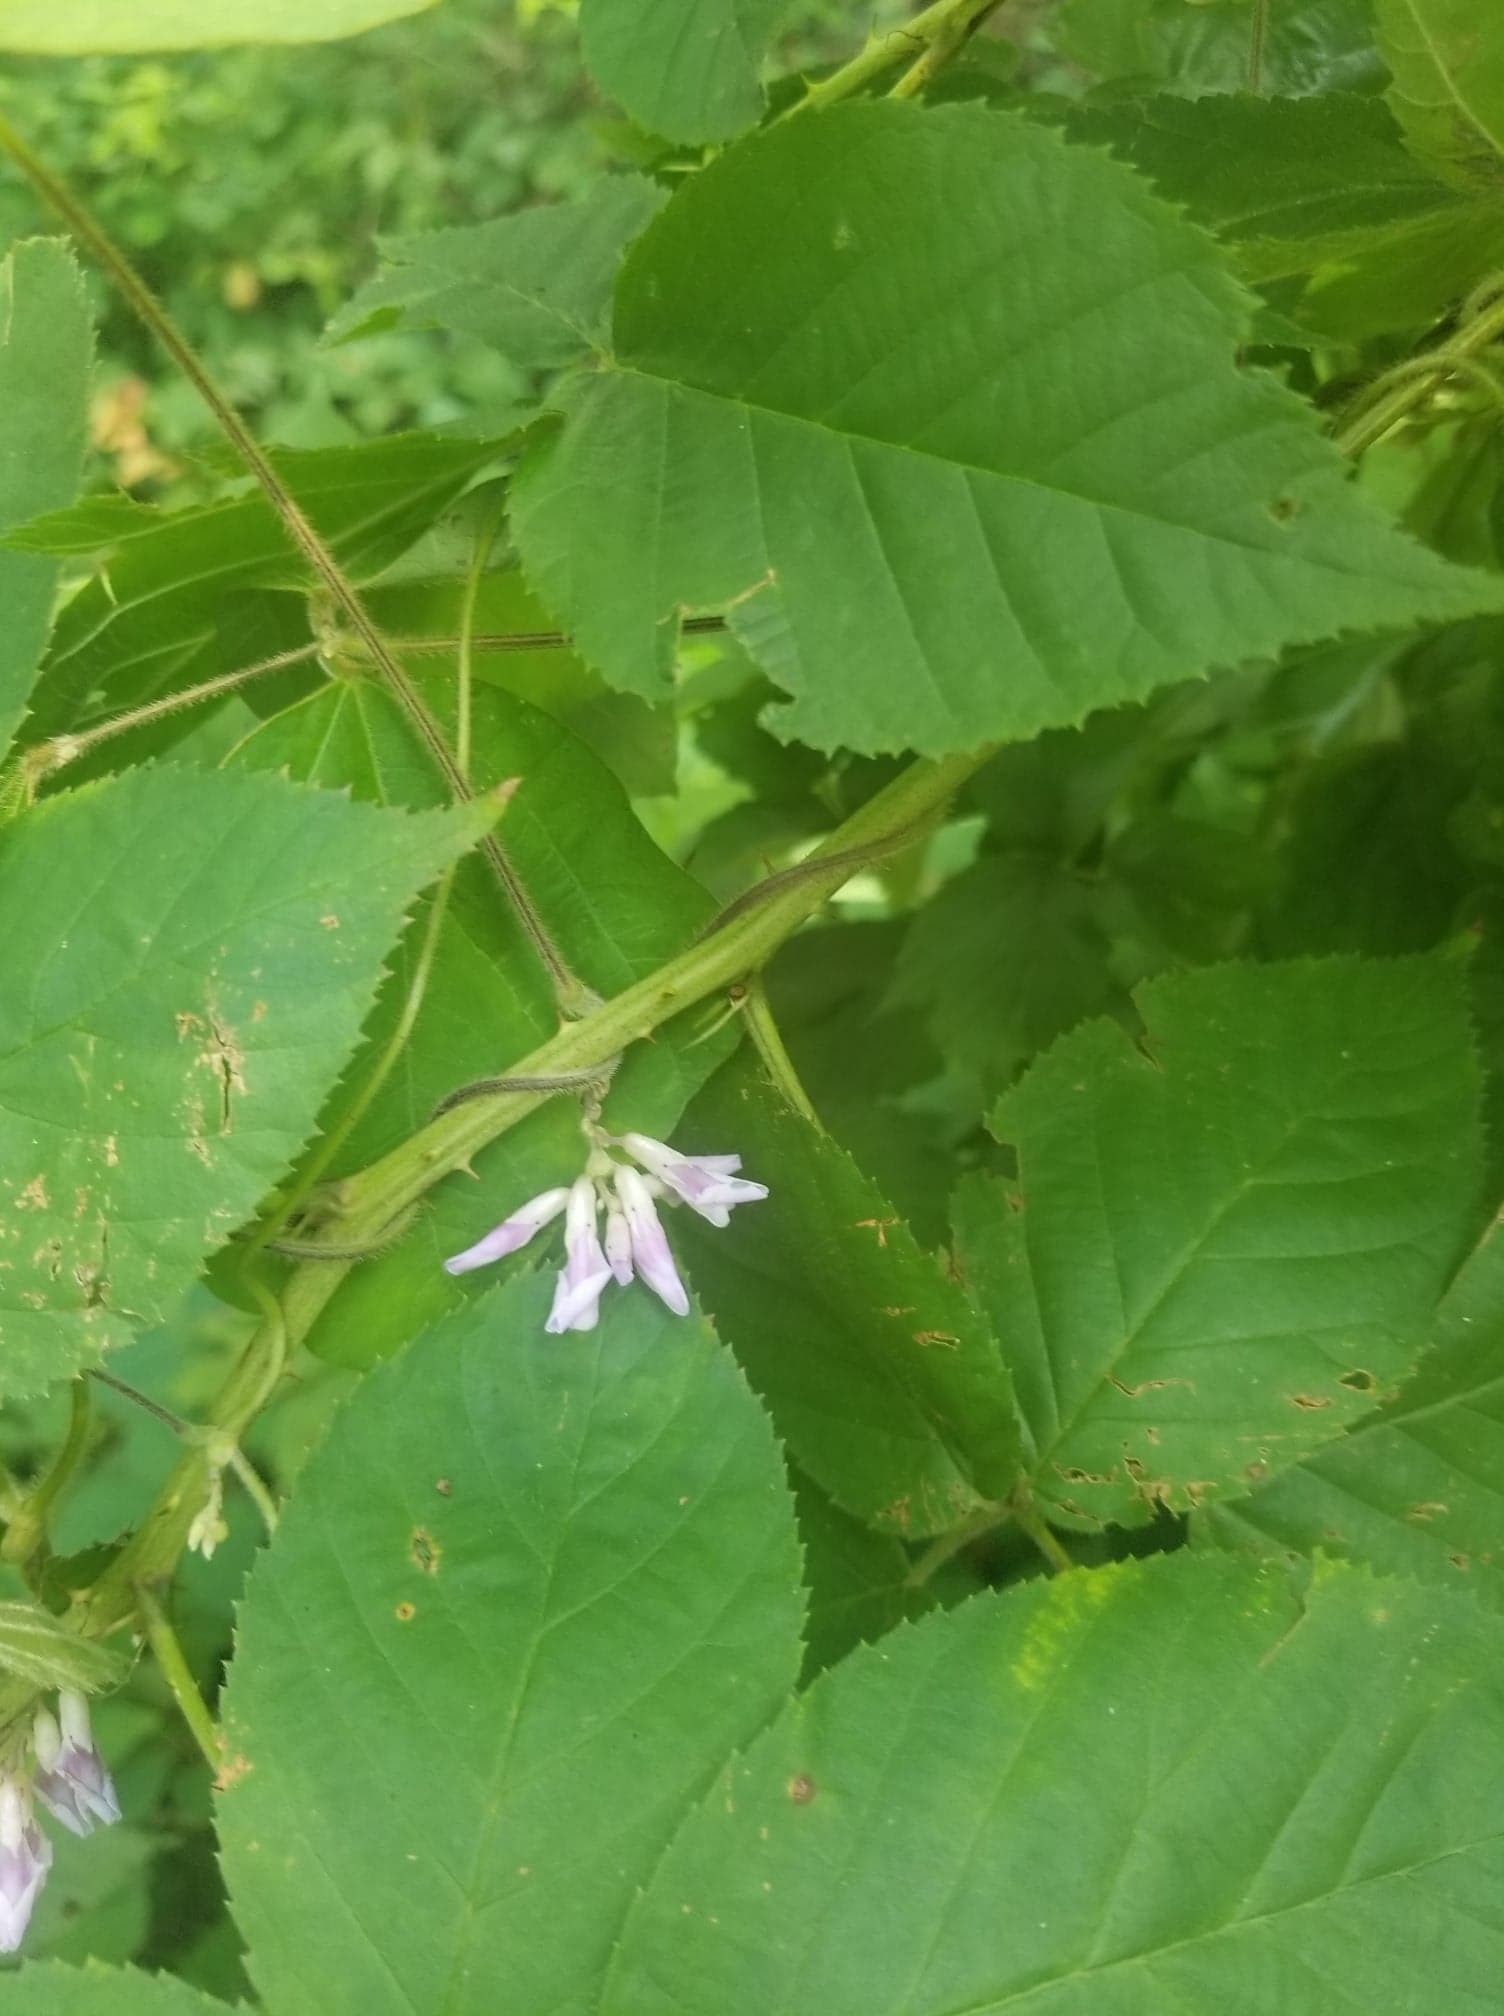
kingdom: Plantae
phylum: Tracheophyta
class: Magnoliopsida
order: Fabales
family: Fabaceae
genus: Amphicarpaea
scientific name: Amphicarpaea bracteata
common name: American hog peanut
